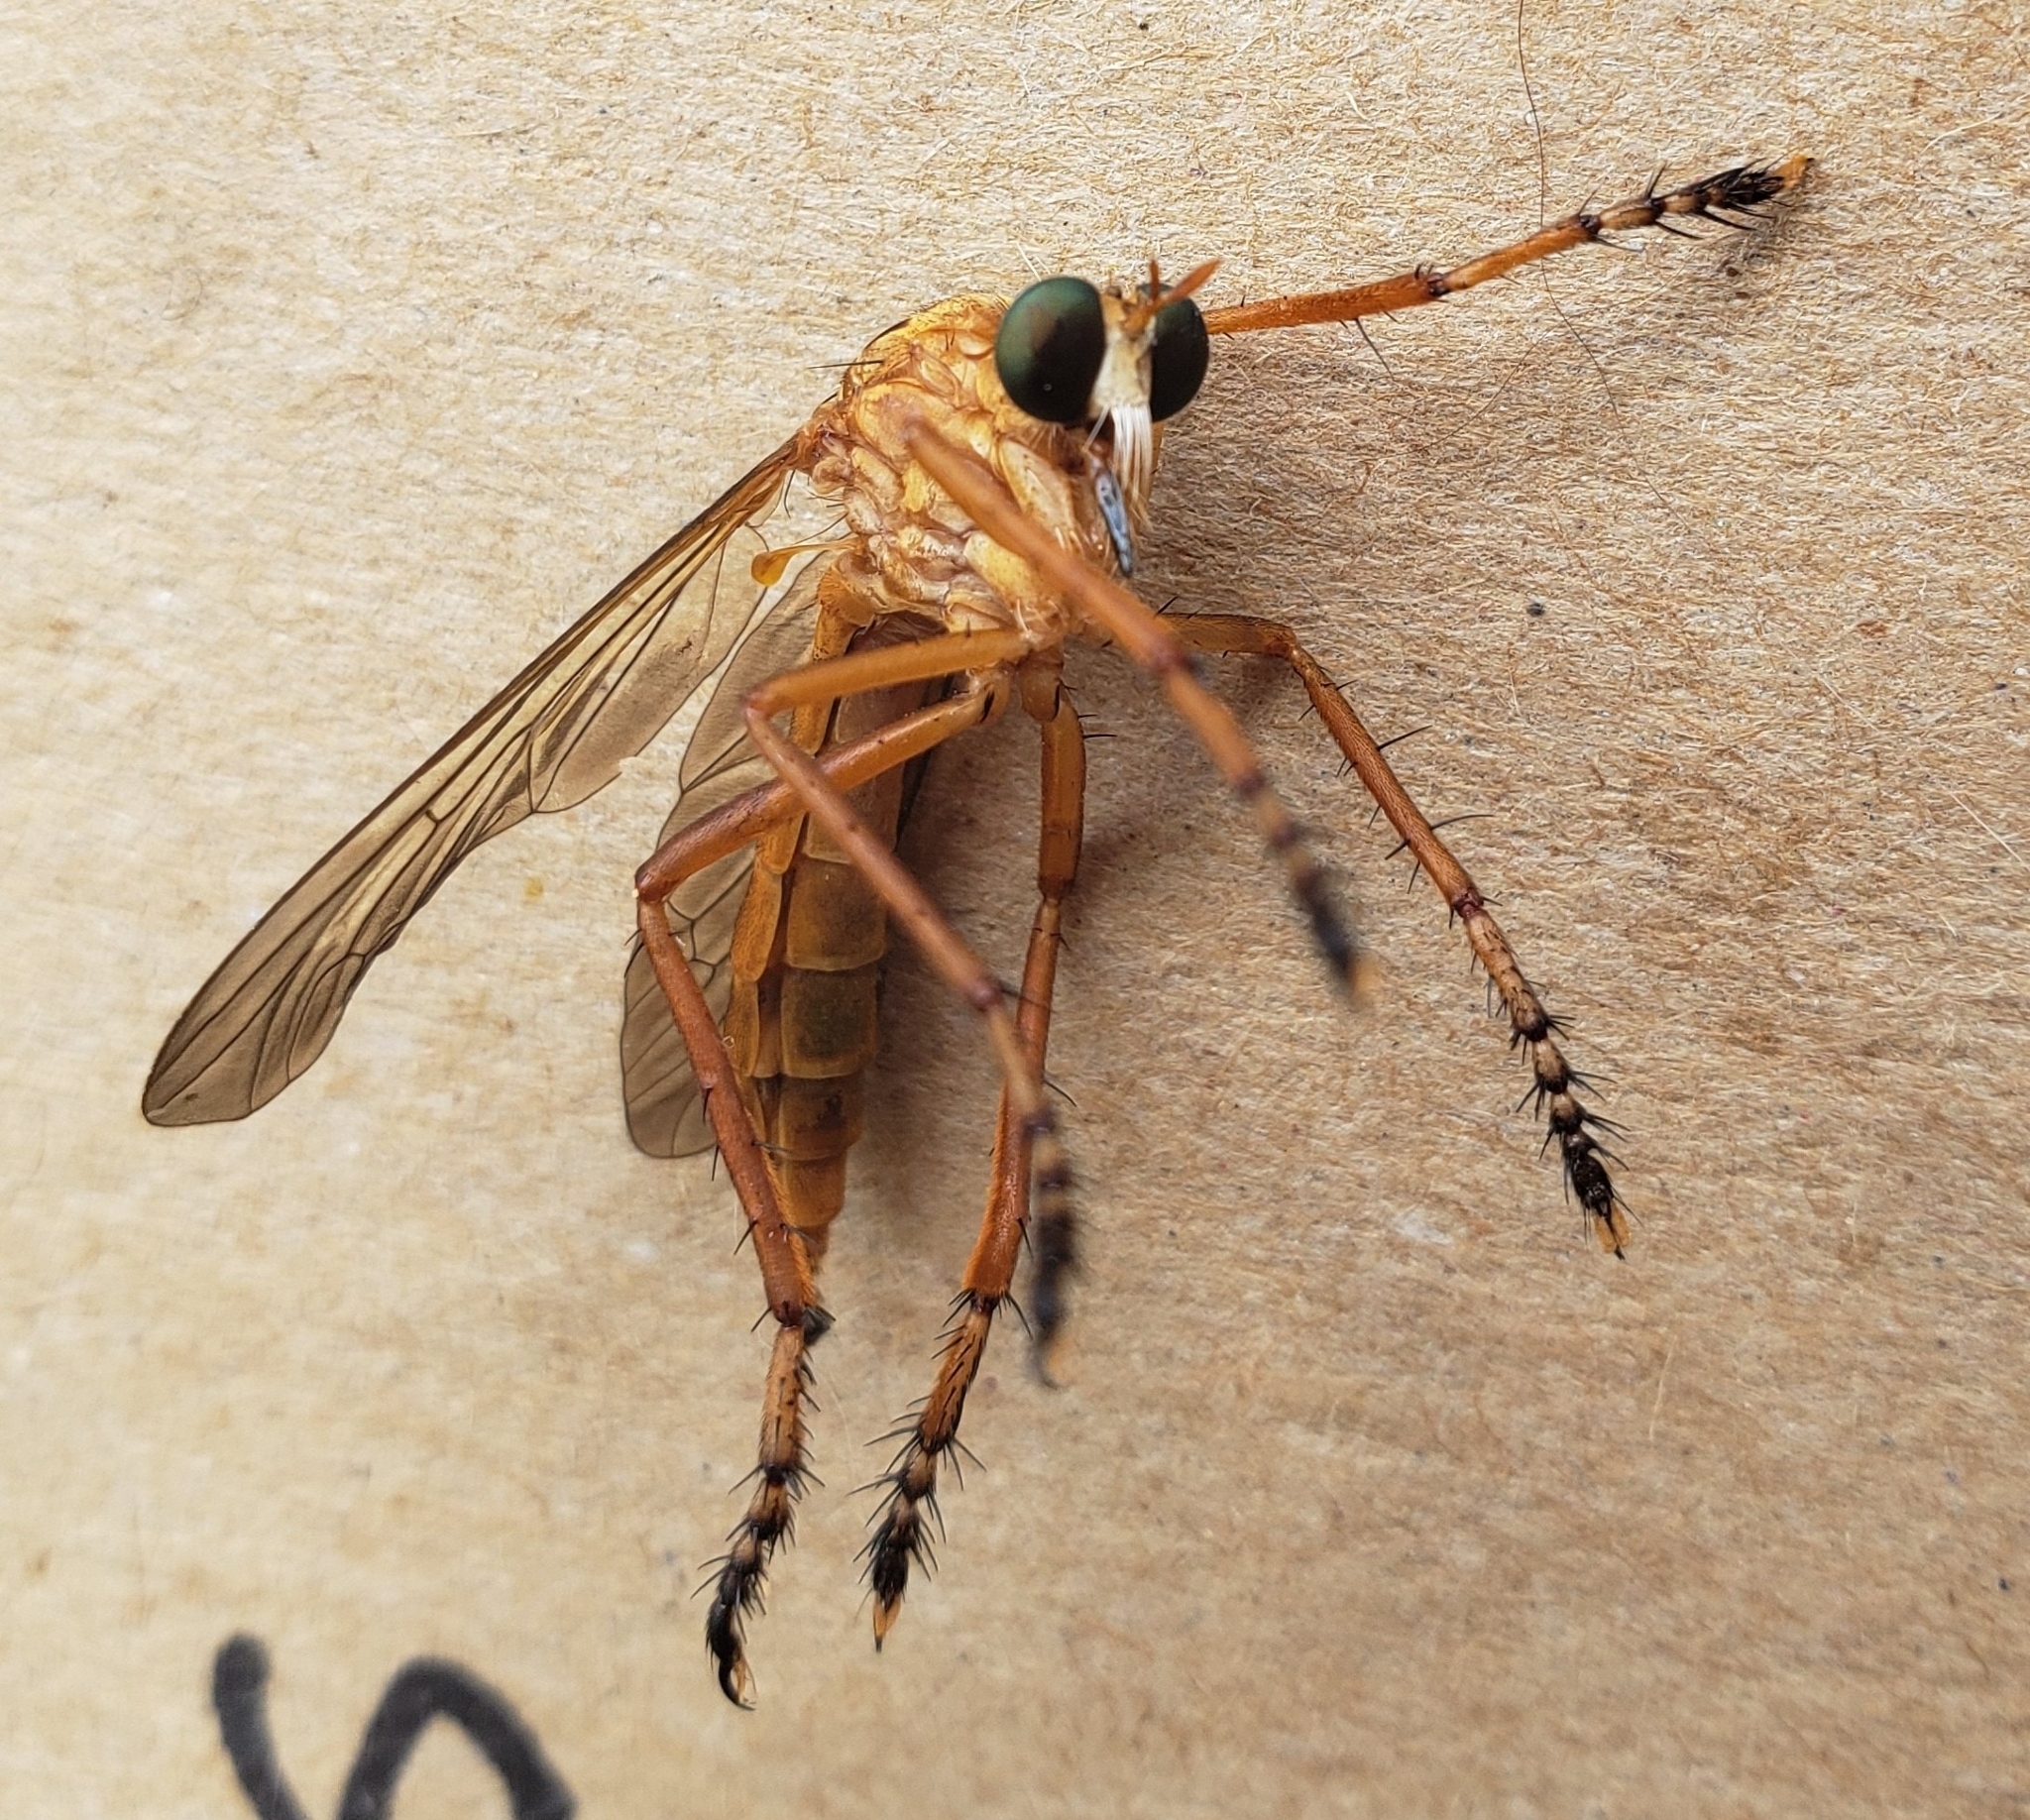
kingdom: Animalia
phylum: Arthropoda
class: Insecta
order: Diptera
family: Asilidae
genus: Diogmites
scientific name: Diogmites neoternatus
